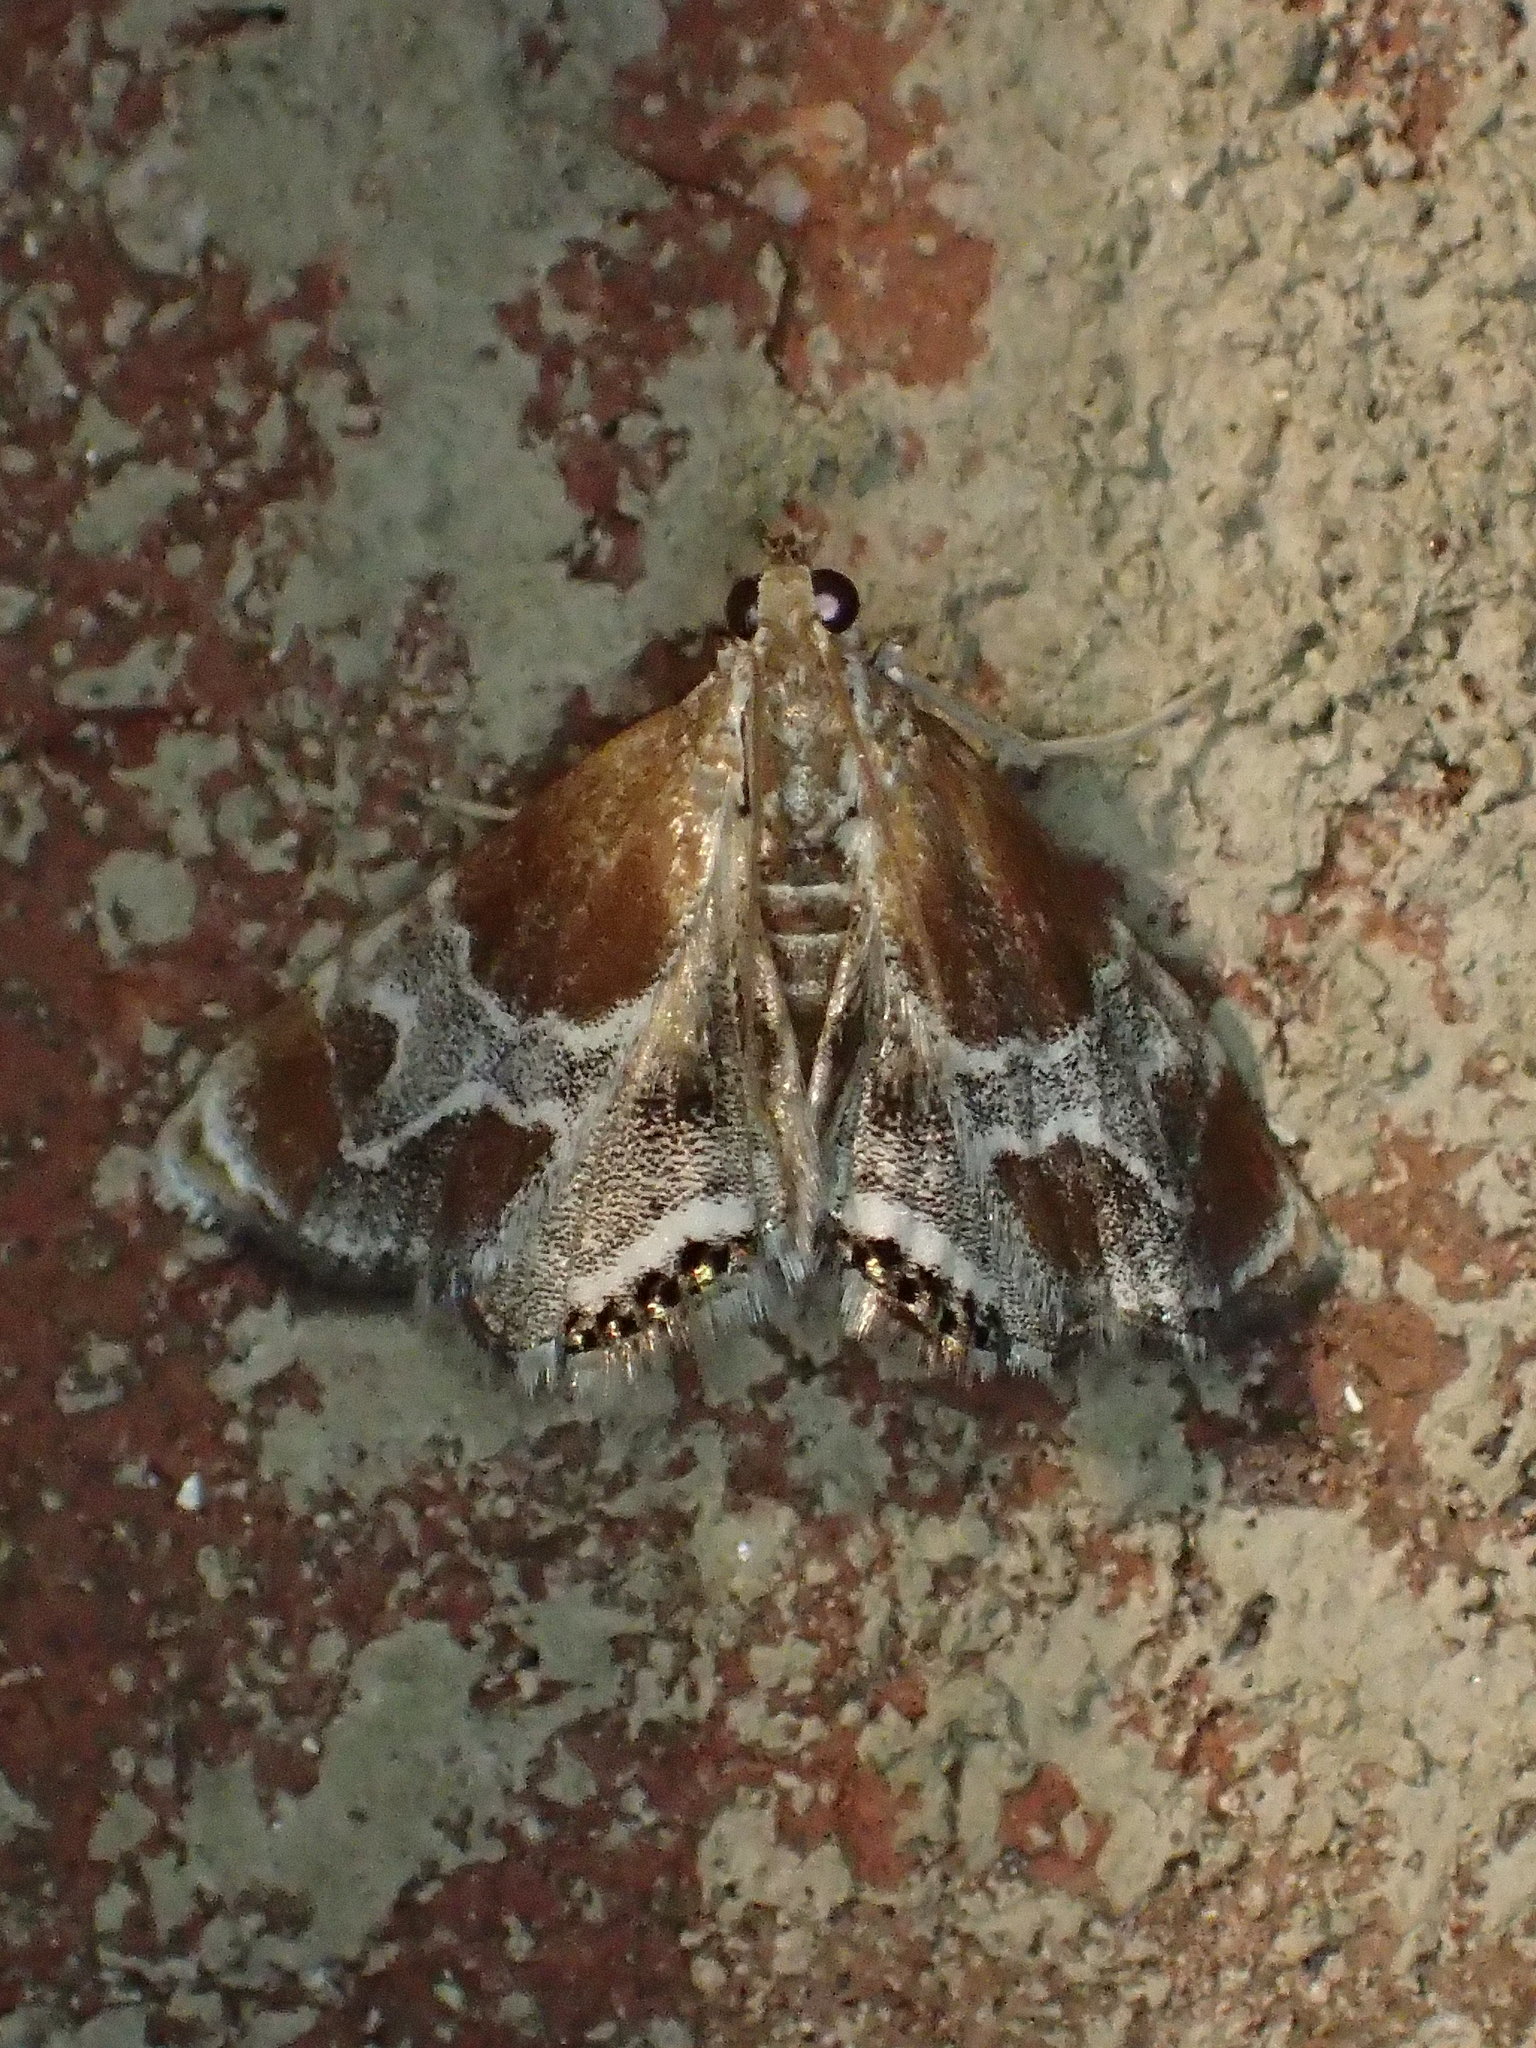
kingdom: Animalia
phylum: Arthropoda
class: Insecta
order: Lepidoptera
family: Crambidae
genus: Chalcoela
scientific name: Chalcoela pegasalis
